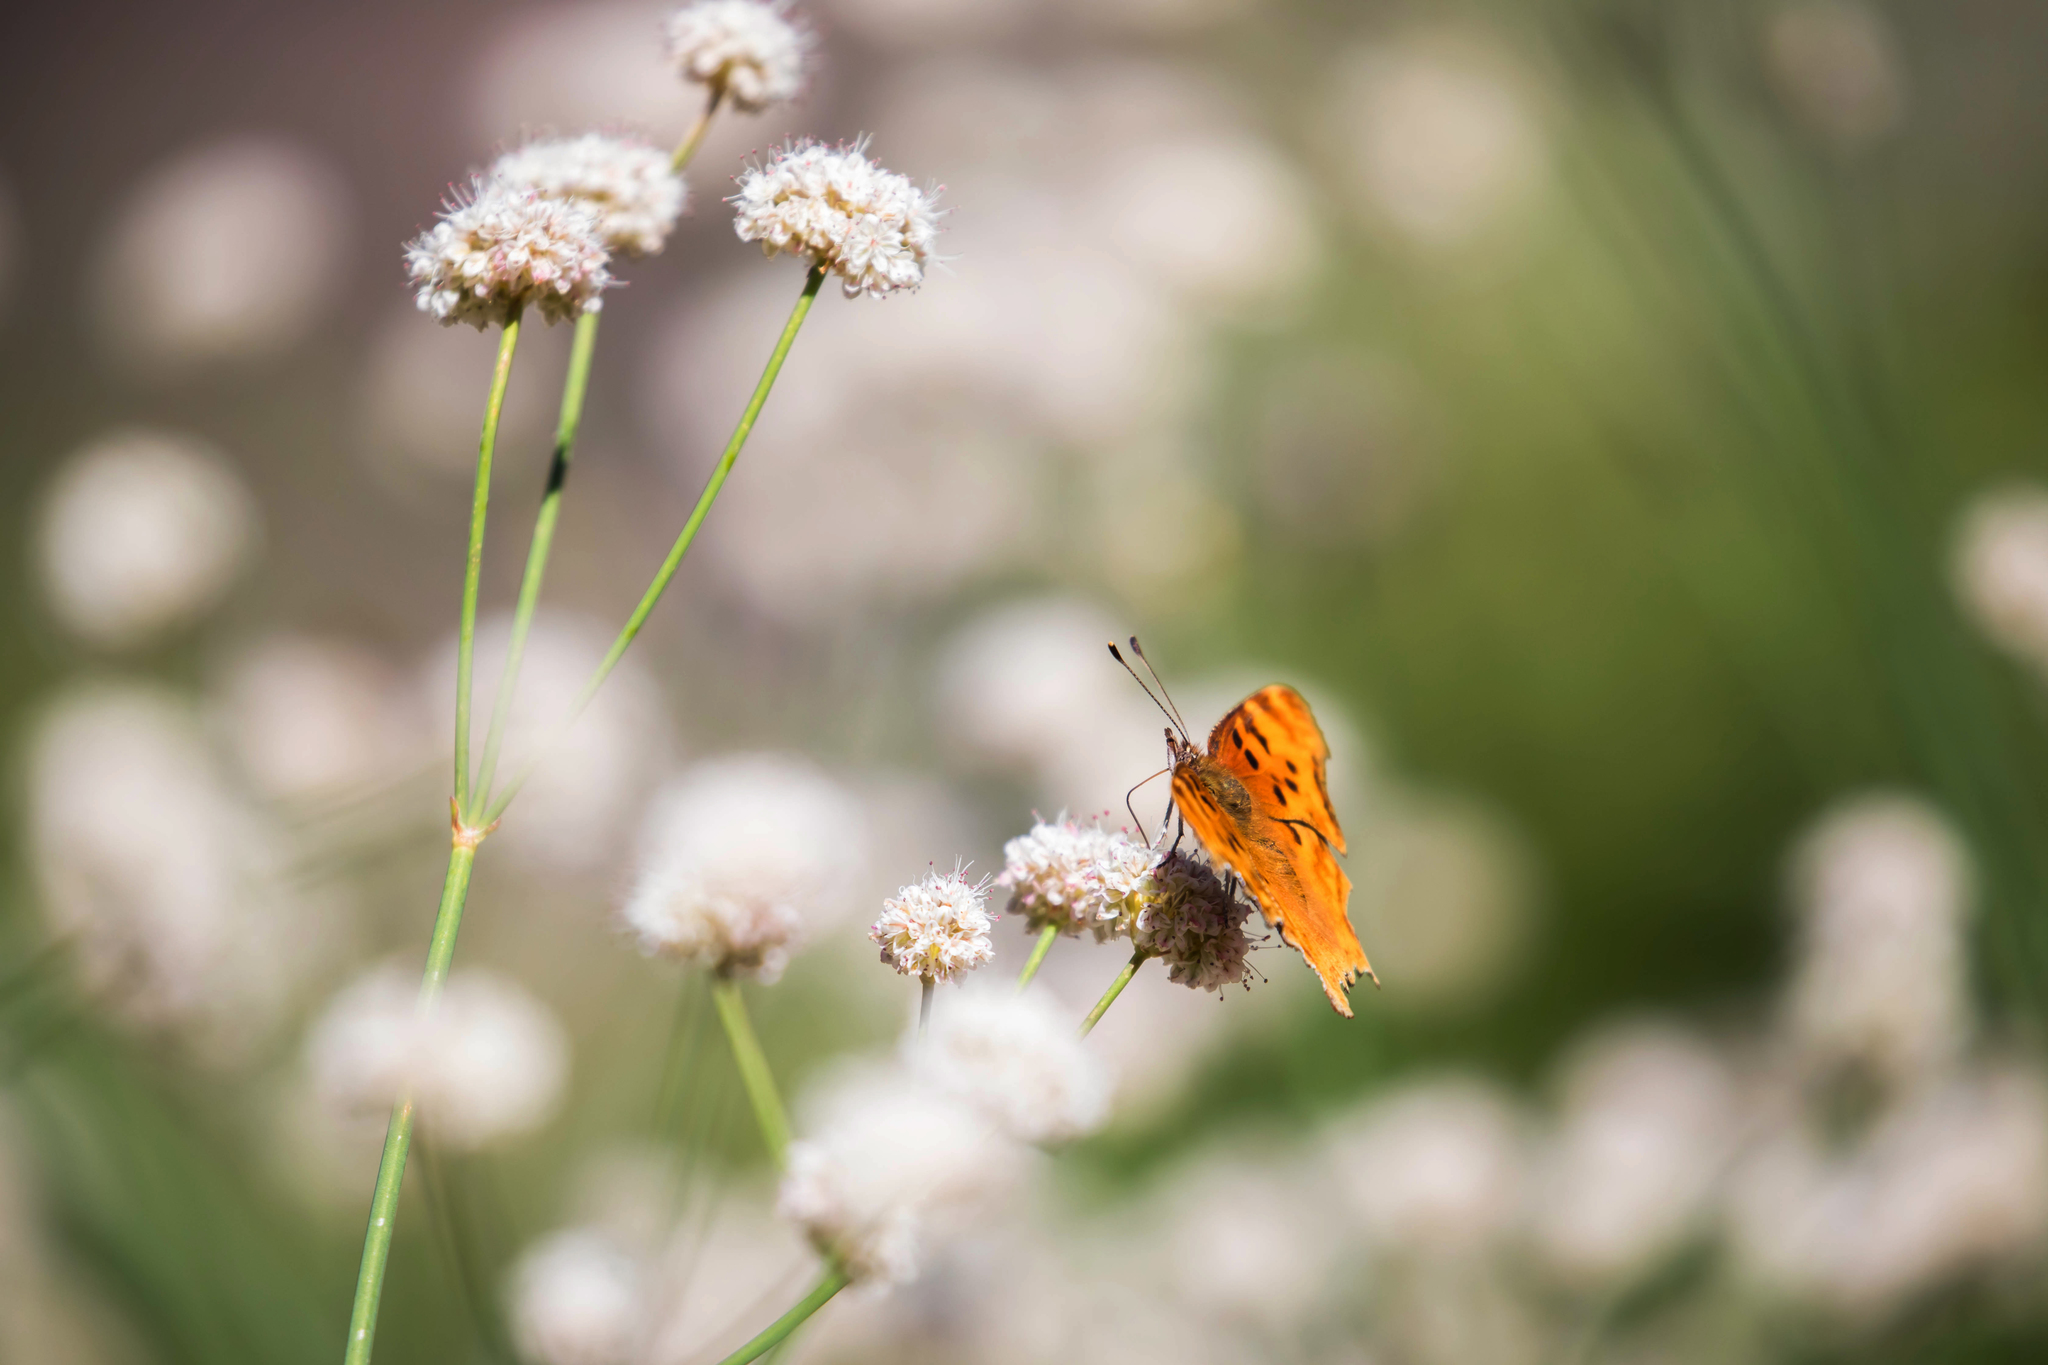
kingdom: Animalia
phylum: Arthropoda
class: Insecta
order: Lepidoptera
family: Nymphalidae
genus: Polygonia
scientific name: Polygonia gracilis
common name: Hoary comma
